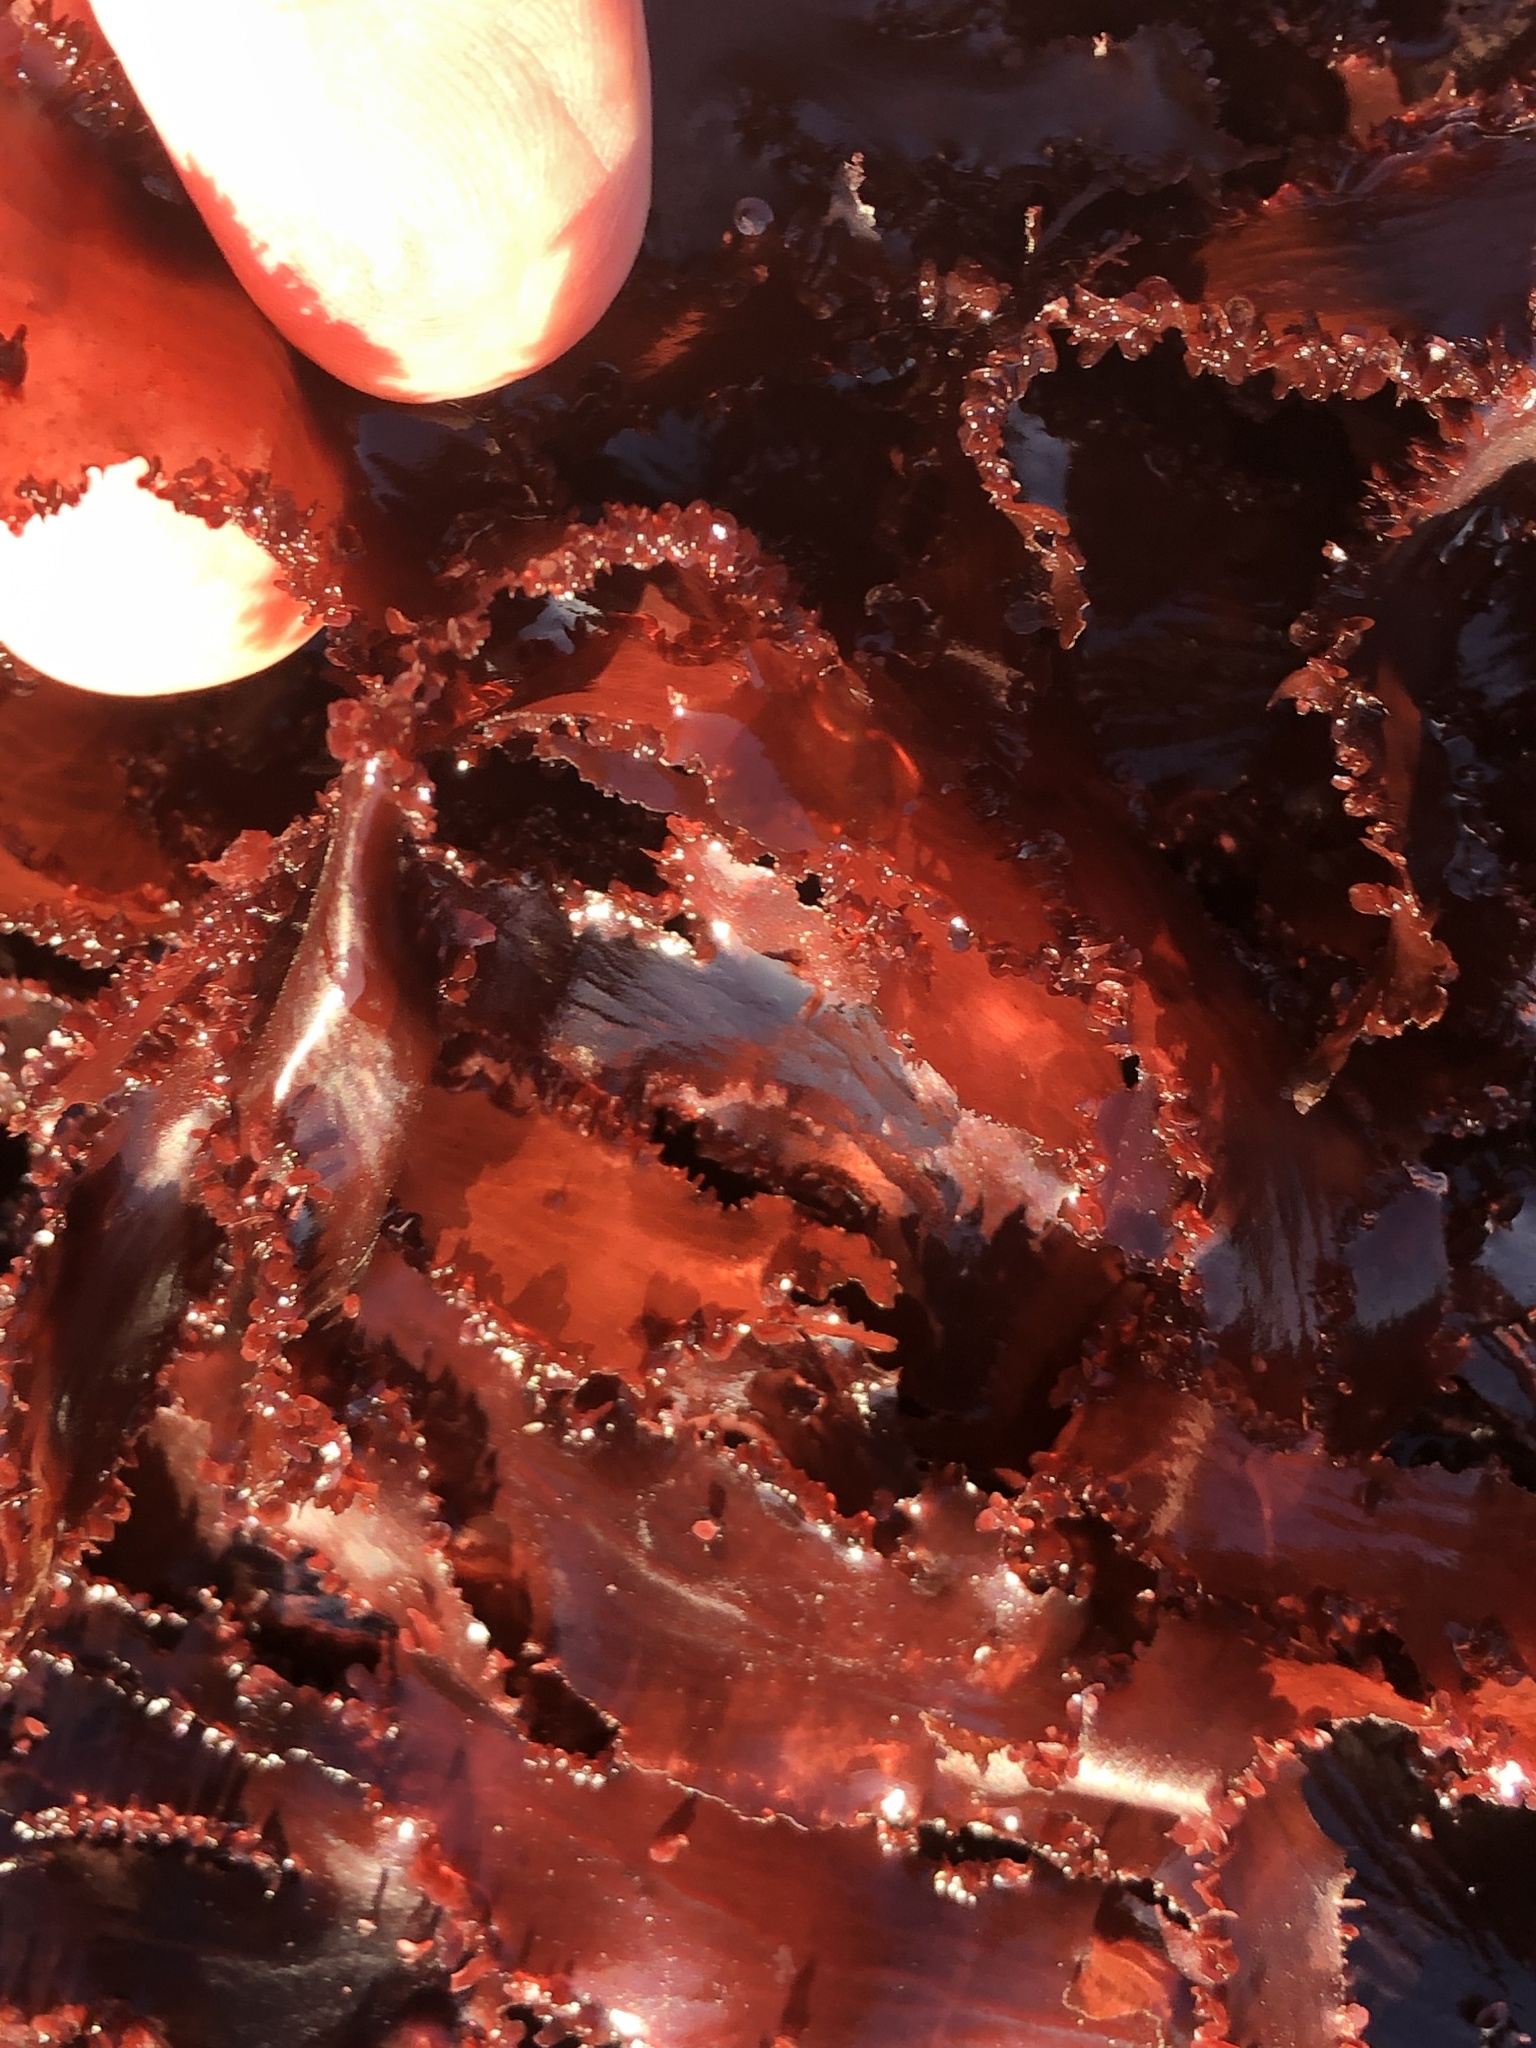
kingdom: Plantae
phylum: Rhodophyta
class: Florideophyceae
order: Ceramiales
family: Delesseriaceae
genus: Cryptopleura
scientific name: Cryptopleura ruprechtiana
